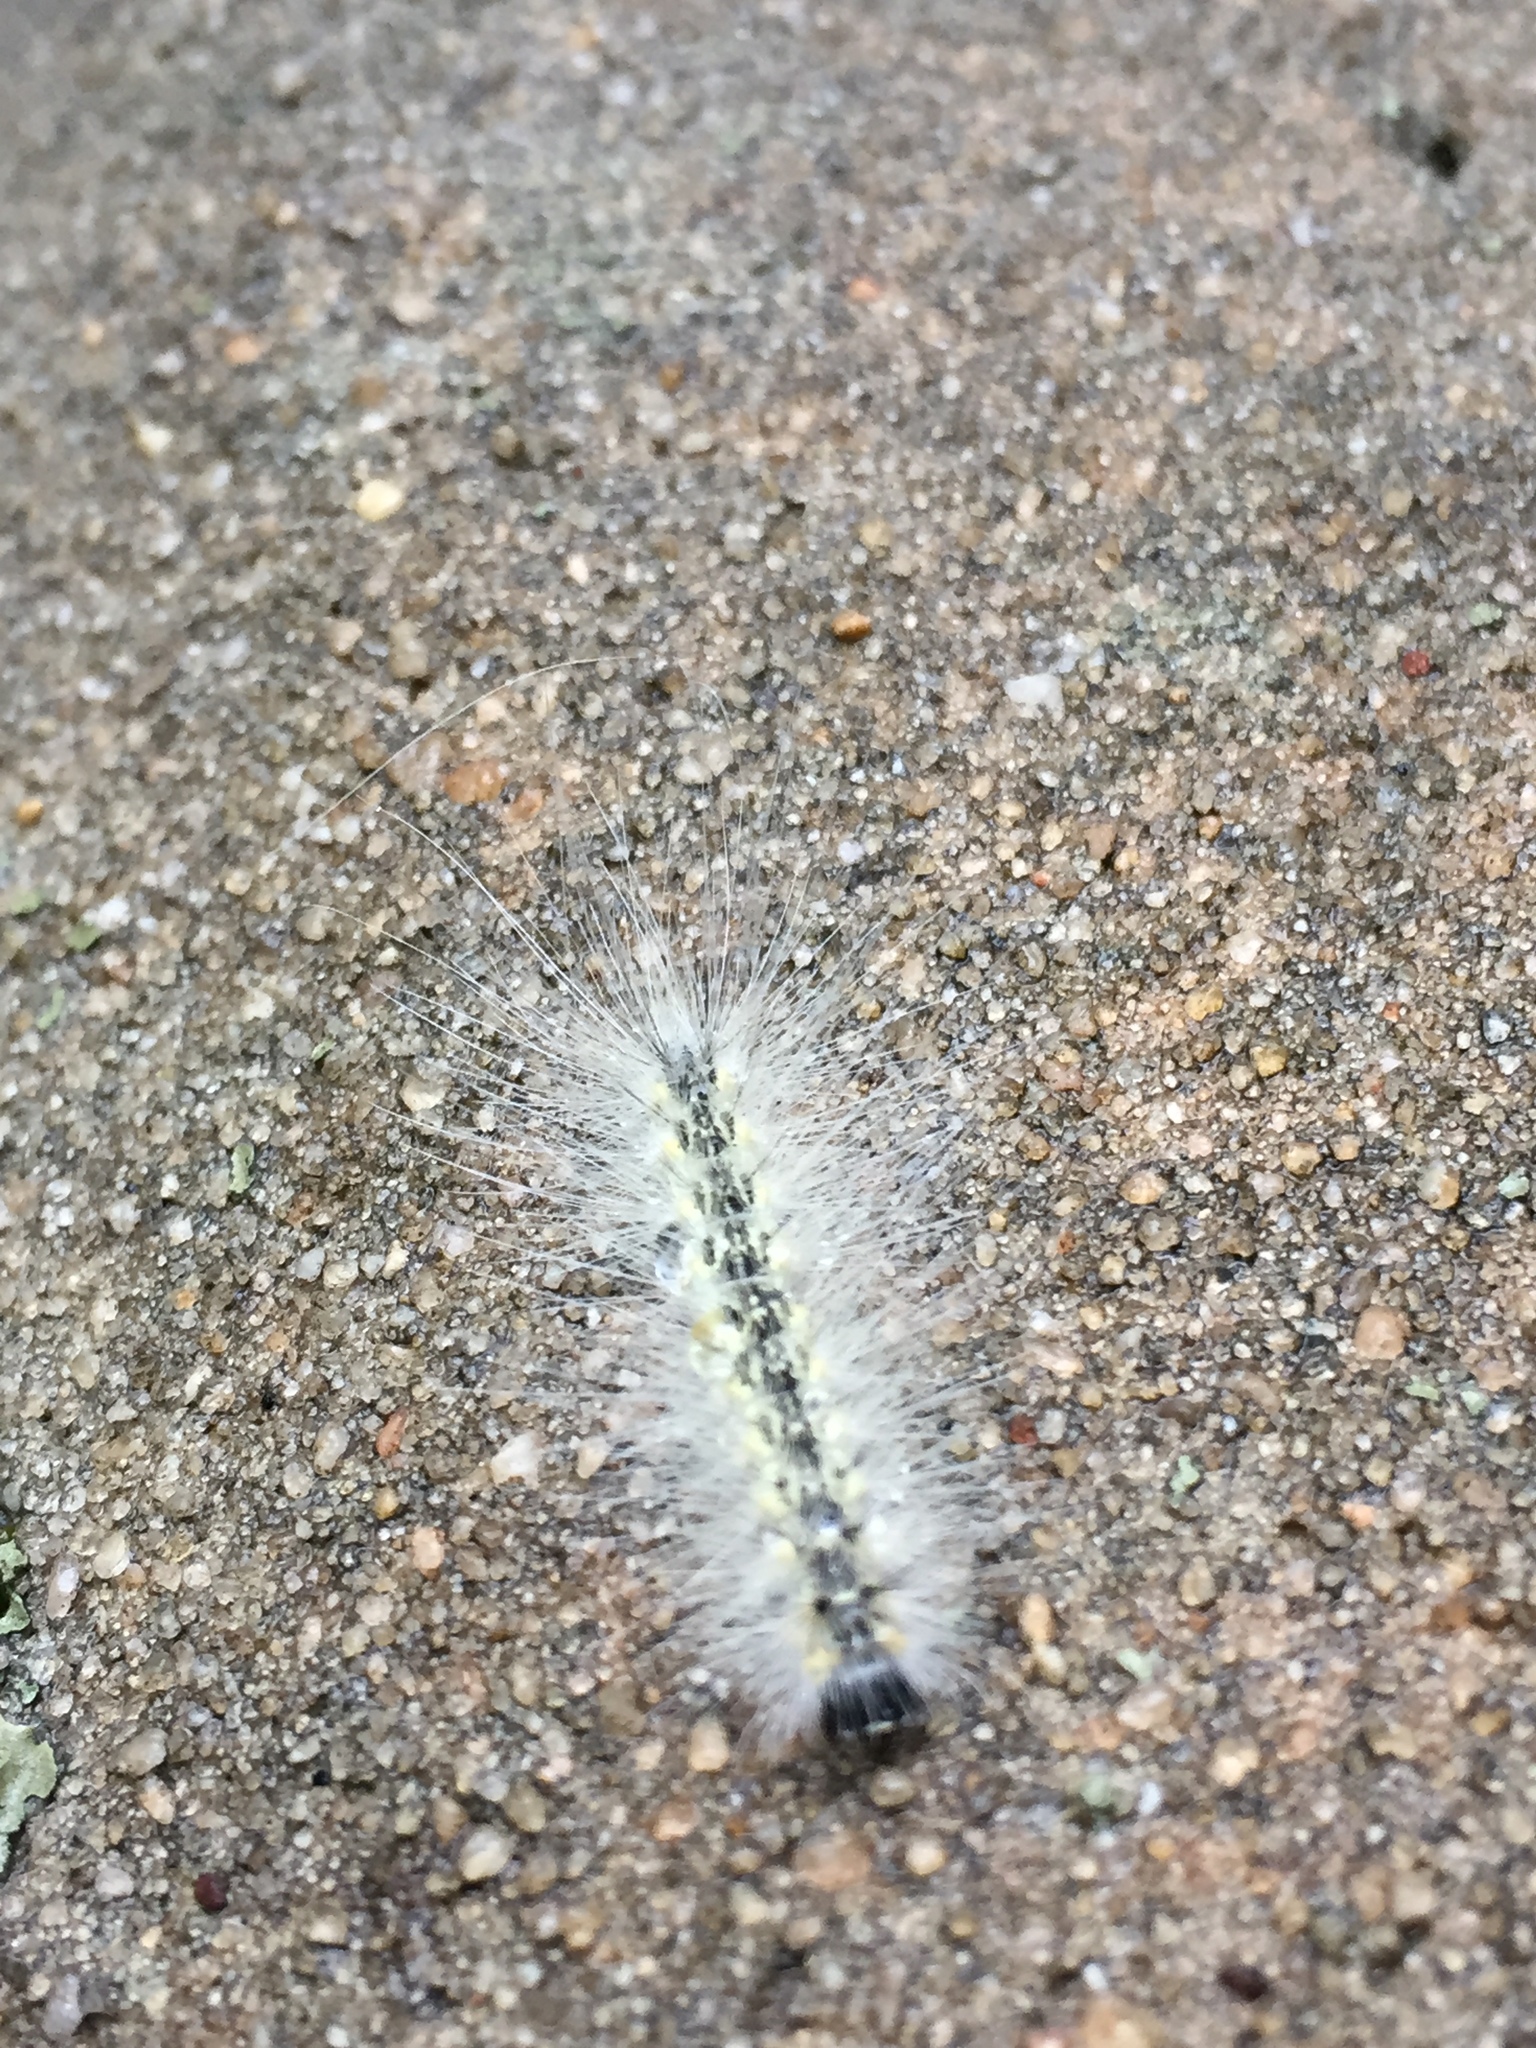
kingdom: Animalia
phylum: Arthropoda
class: Insecta
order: Lepidoptera
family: Erebidae
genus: Hyphantria
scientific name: Hyphantria cunea
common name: American white moth
